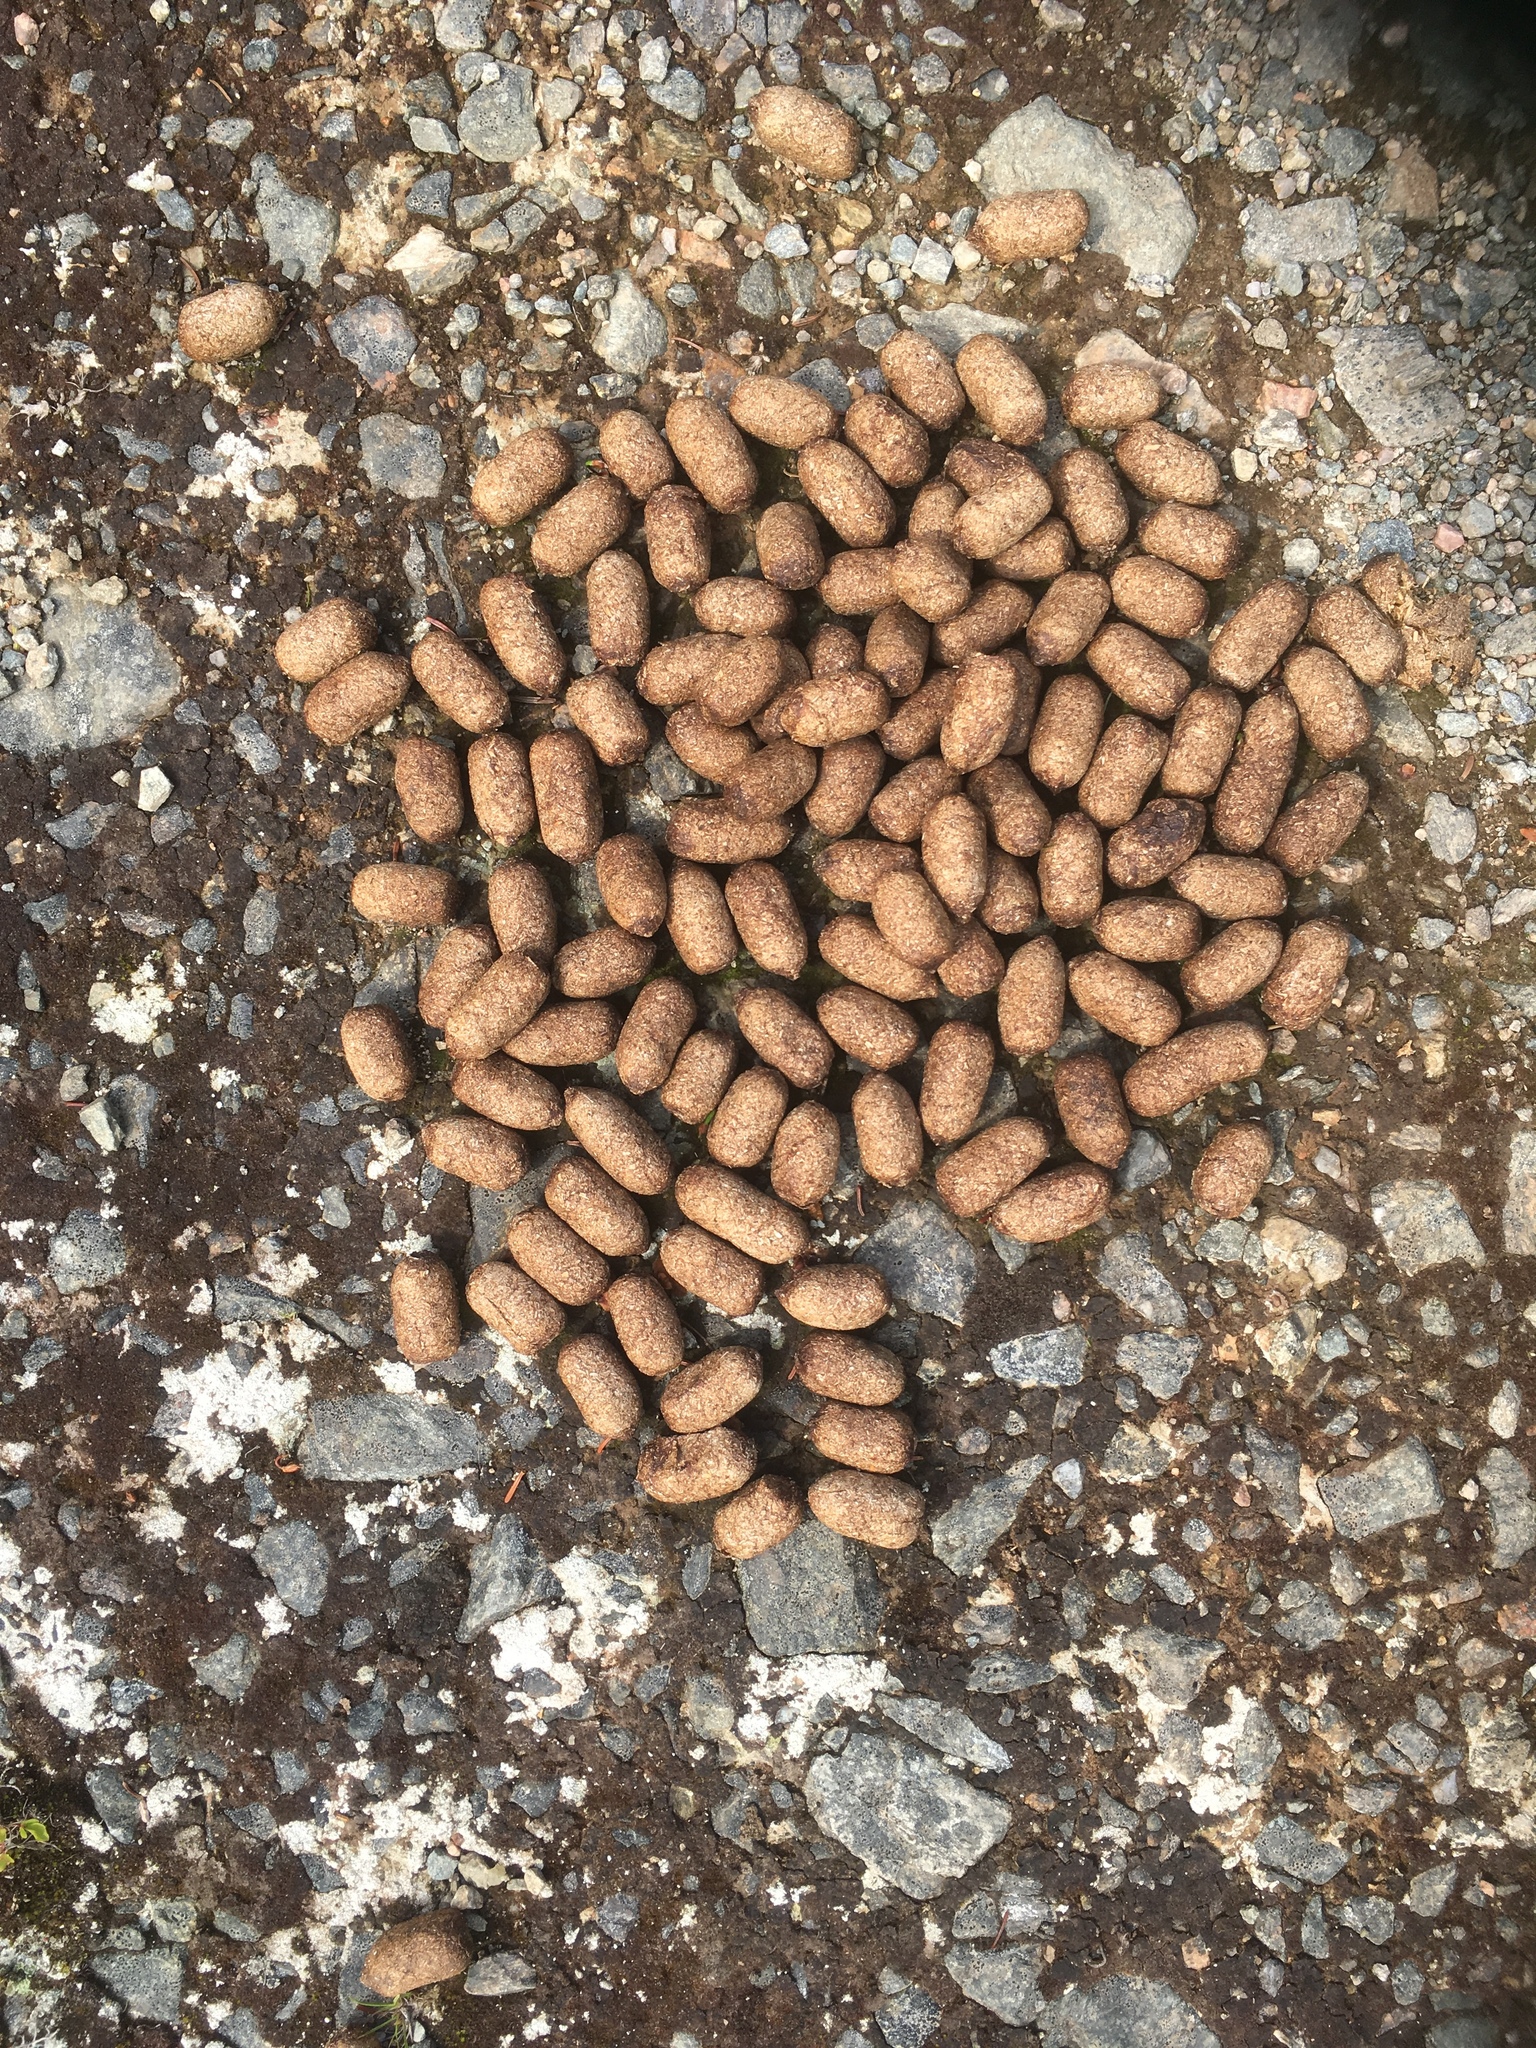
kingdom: Animalia
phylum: Chordata
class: Mammalia
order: Artiodactyla
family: Cervidae
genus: Alces
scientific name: Alces alces
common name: Moose
